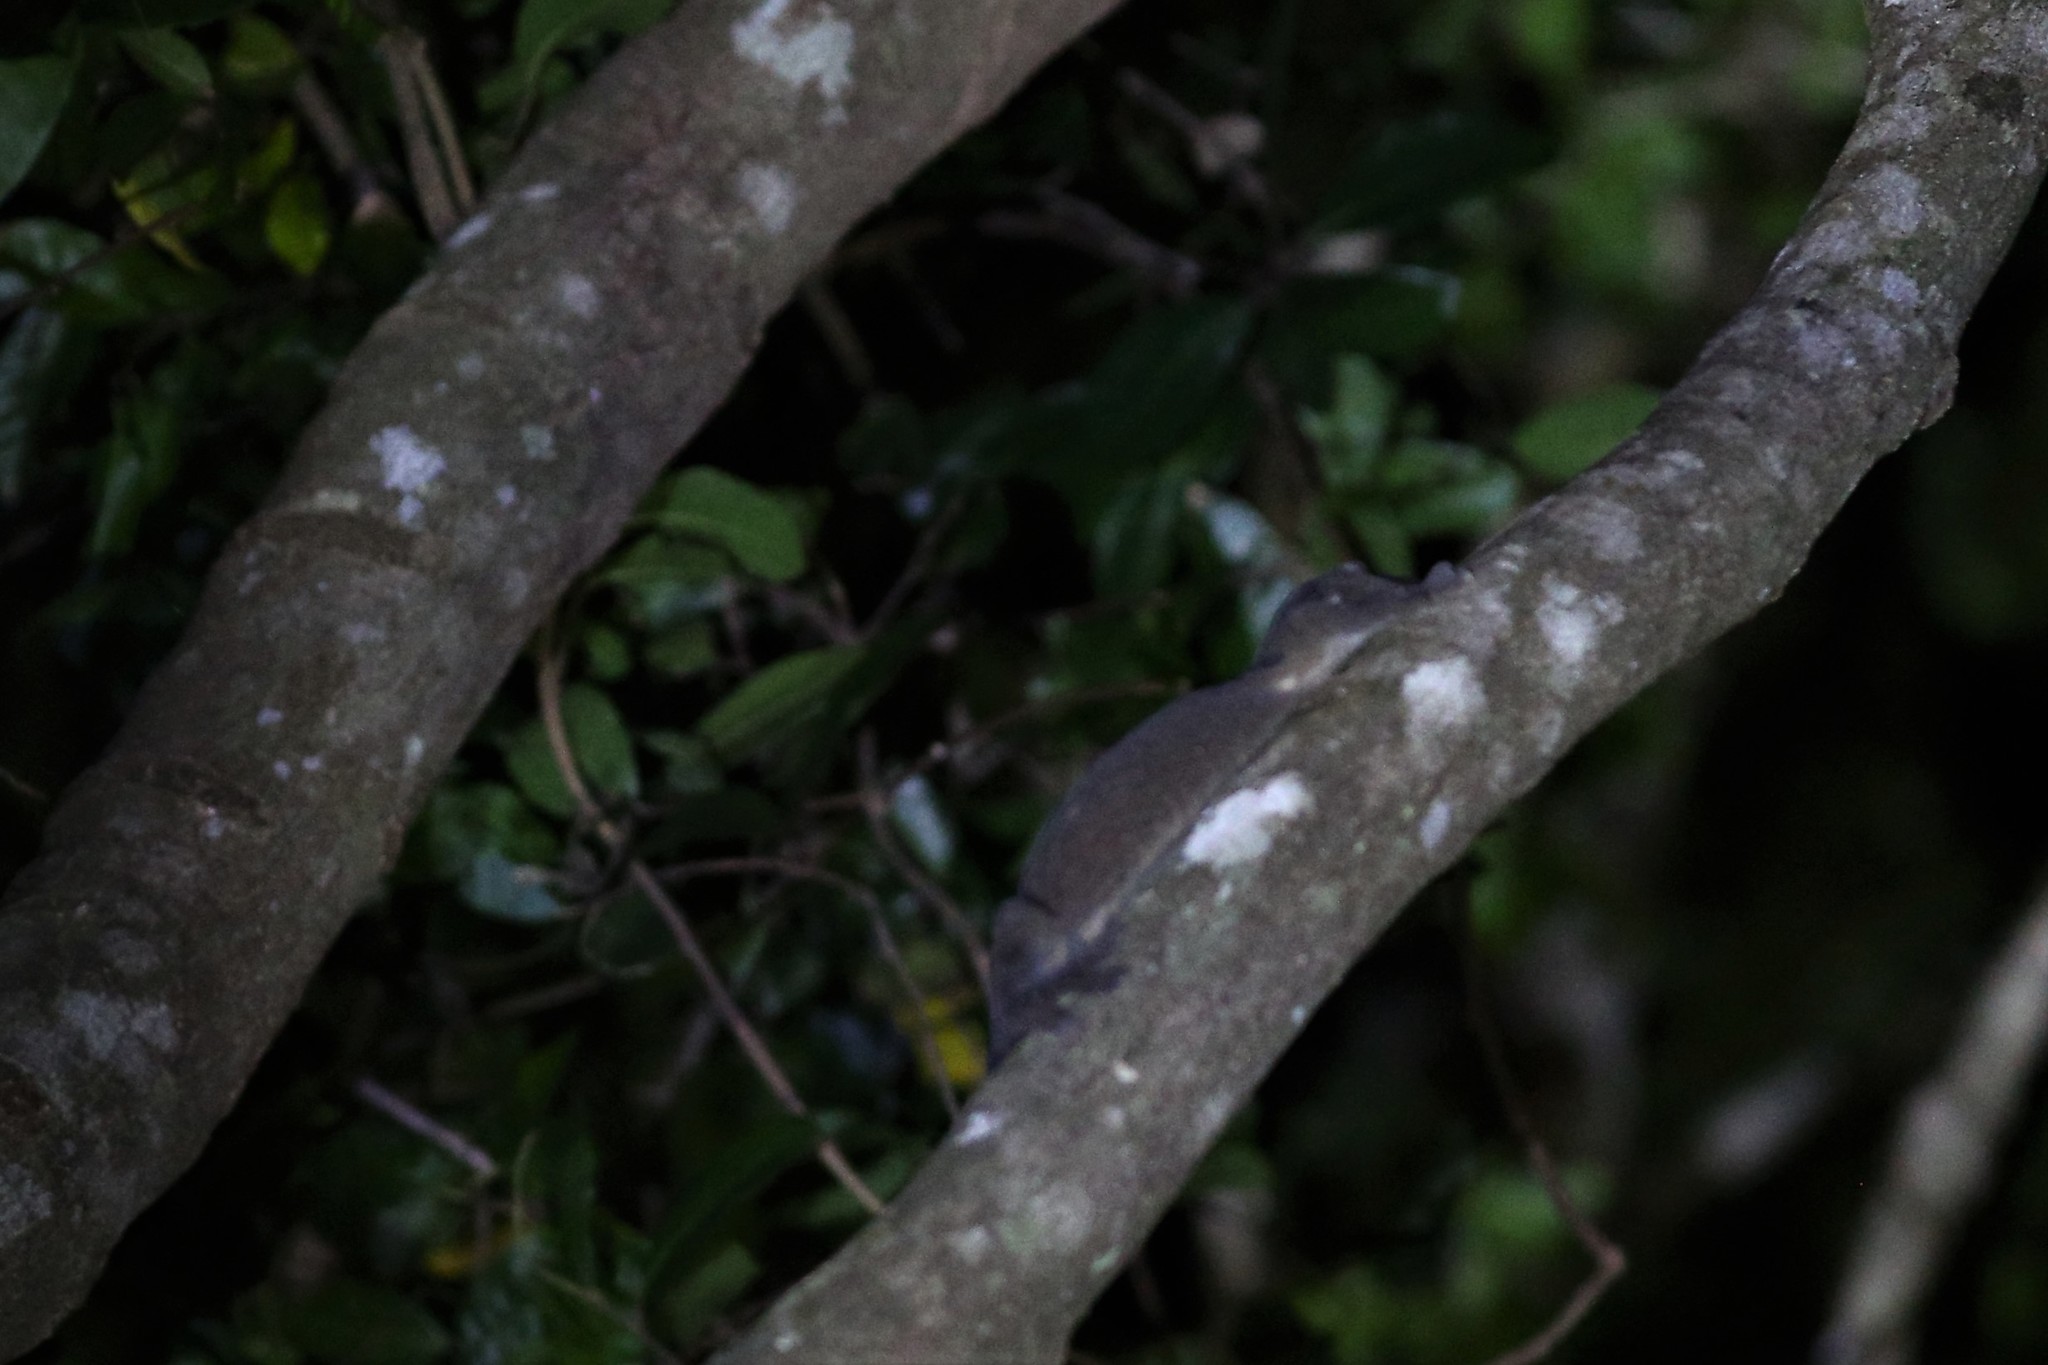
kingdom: Animalia
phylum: Chordata
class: Squamata
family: Diplodactylidae
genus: Rhacodactylus
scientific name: Rhacodactylus leachianus
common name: New caledonia giant gecko
